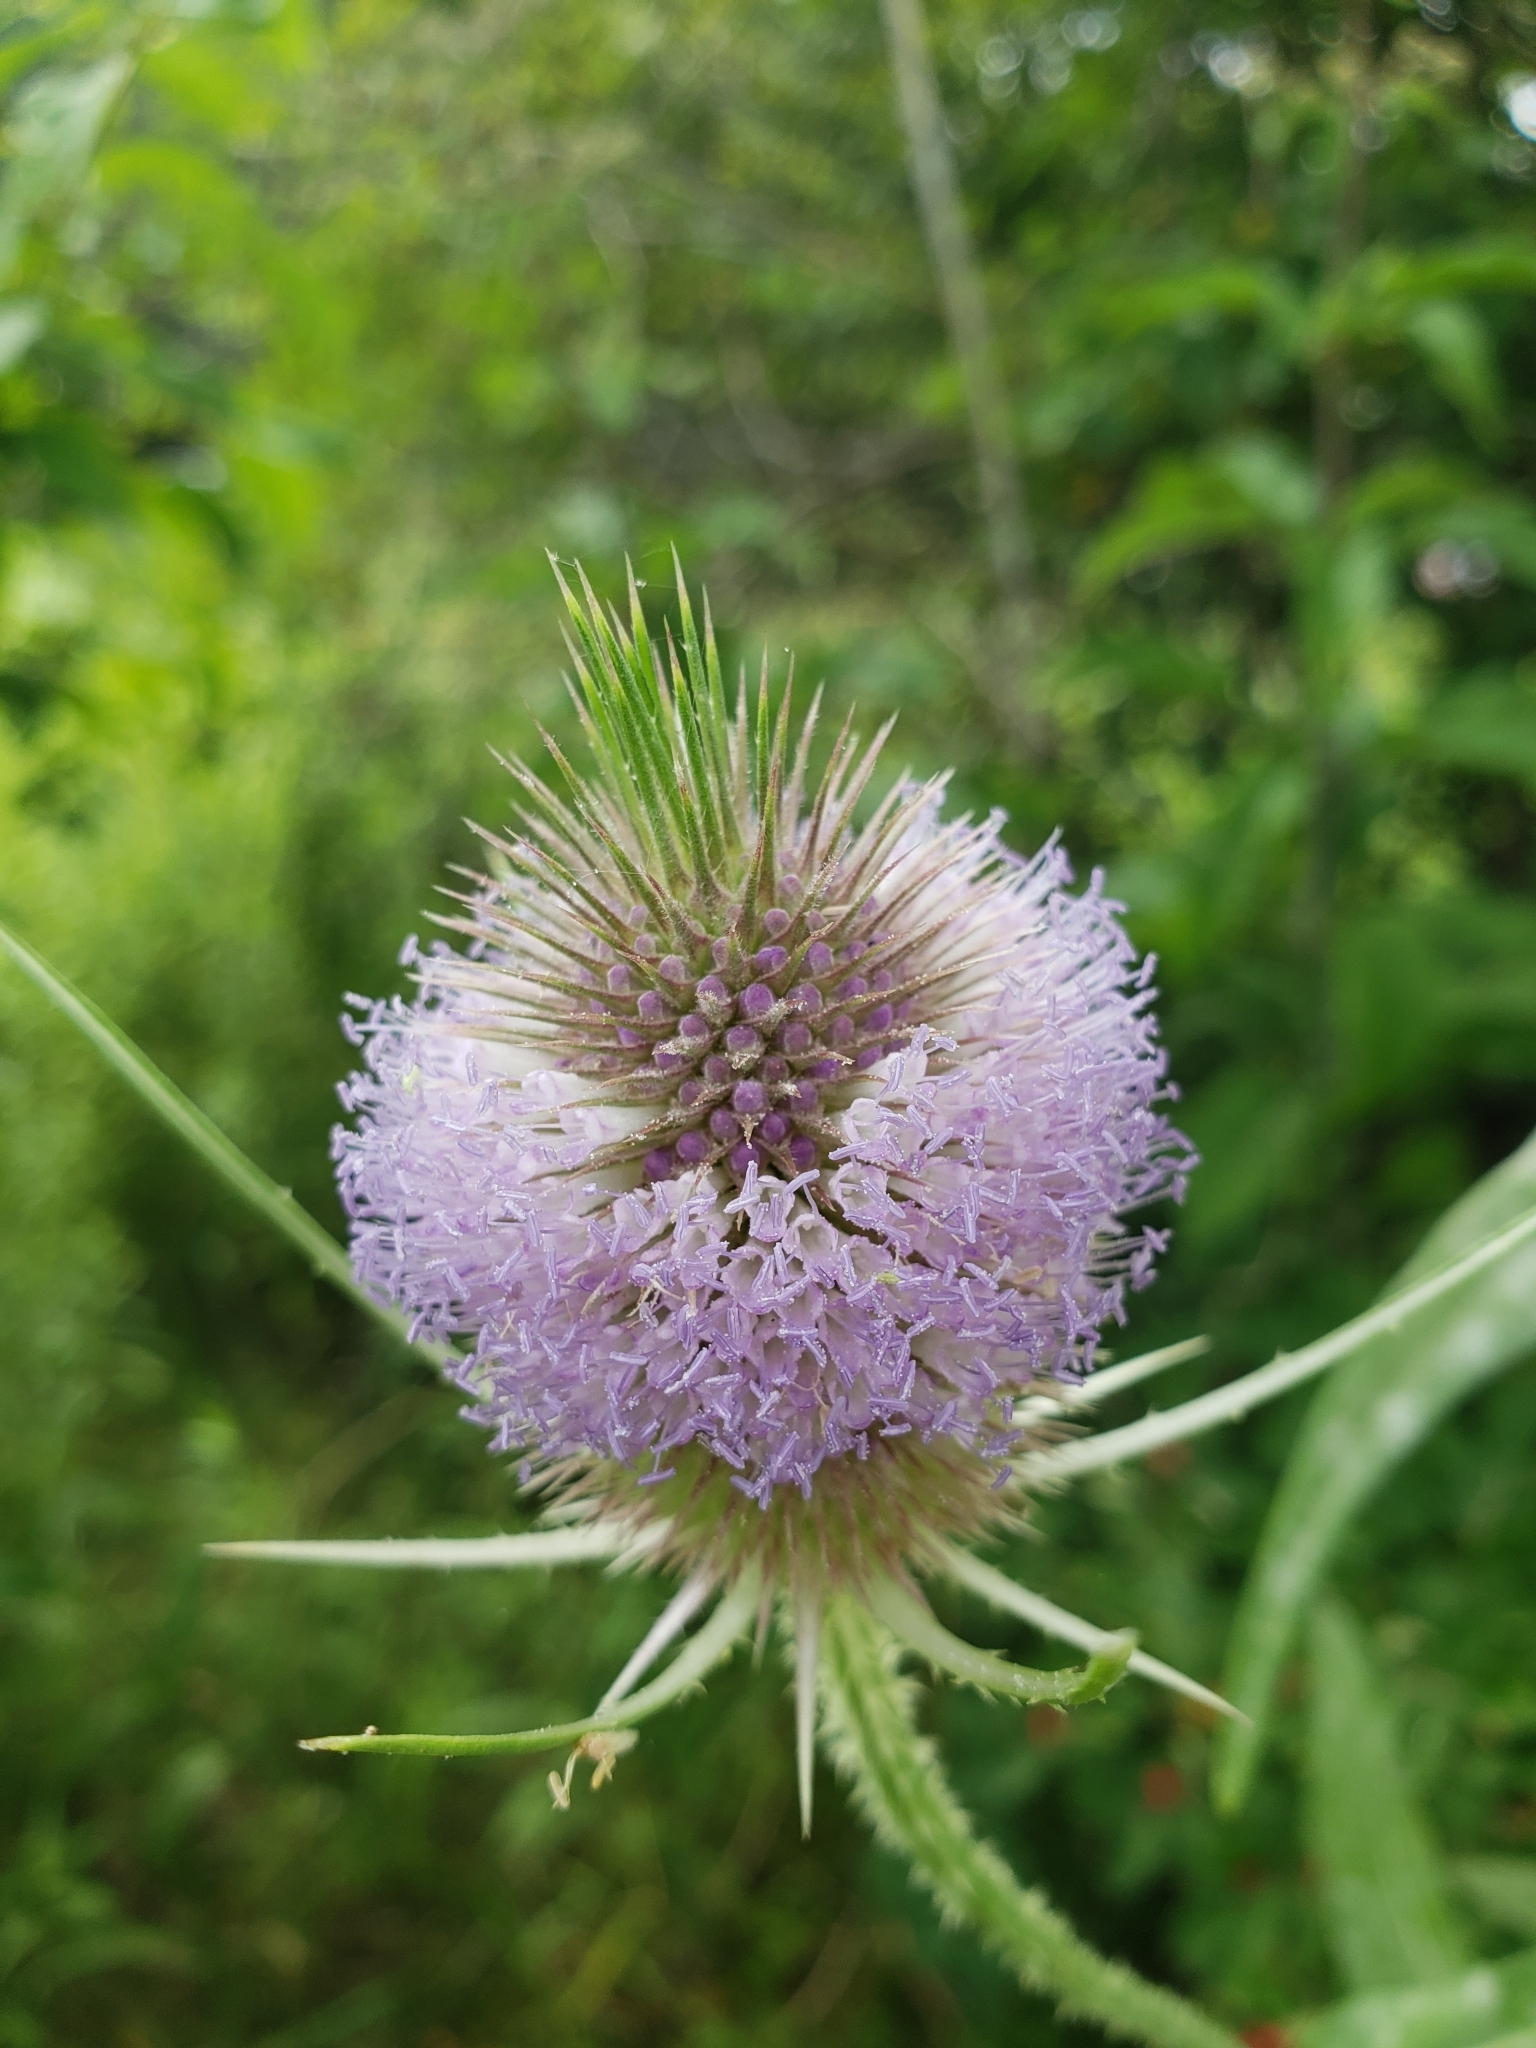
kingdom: Plantae
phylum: Tracheophyta
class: Magnoliopsida
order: Dipsacales
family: Caprifoliaceae
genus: Dipsacus
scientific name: Dipsacus fullonum
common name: Teasel
